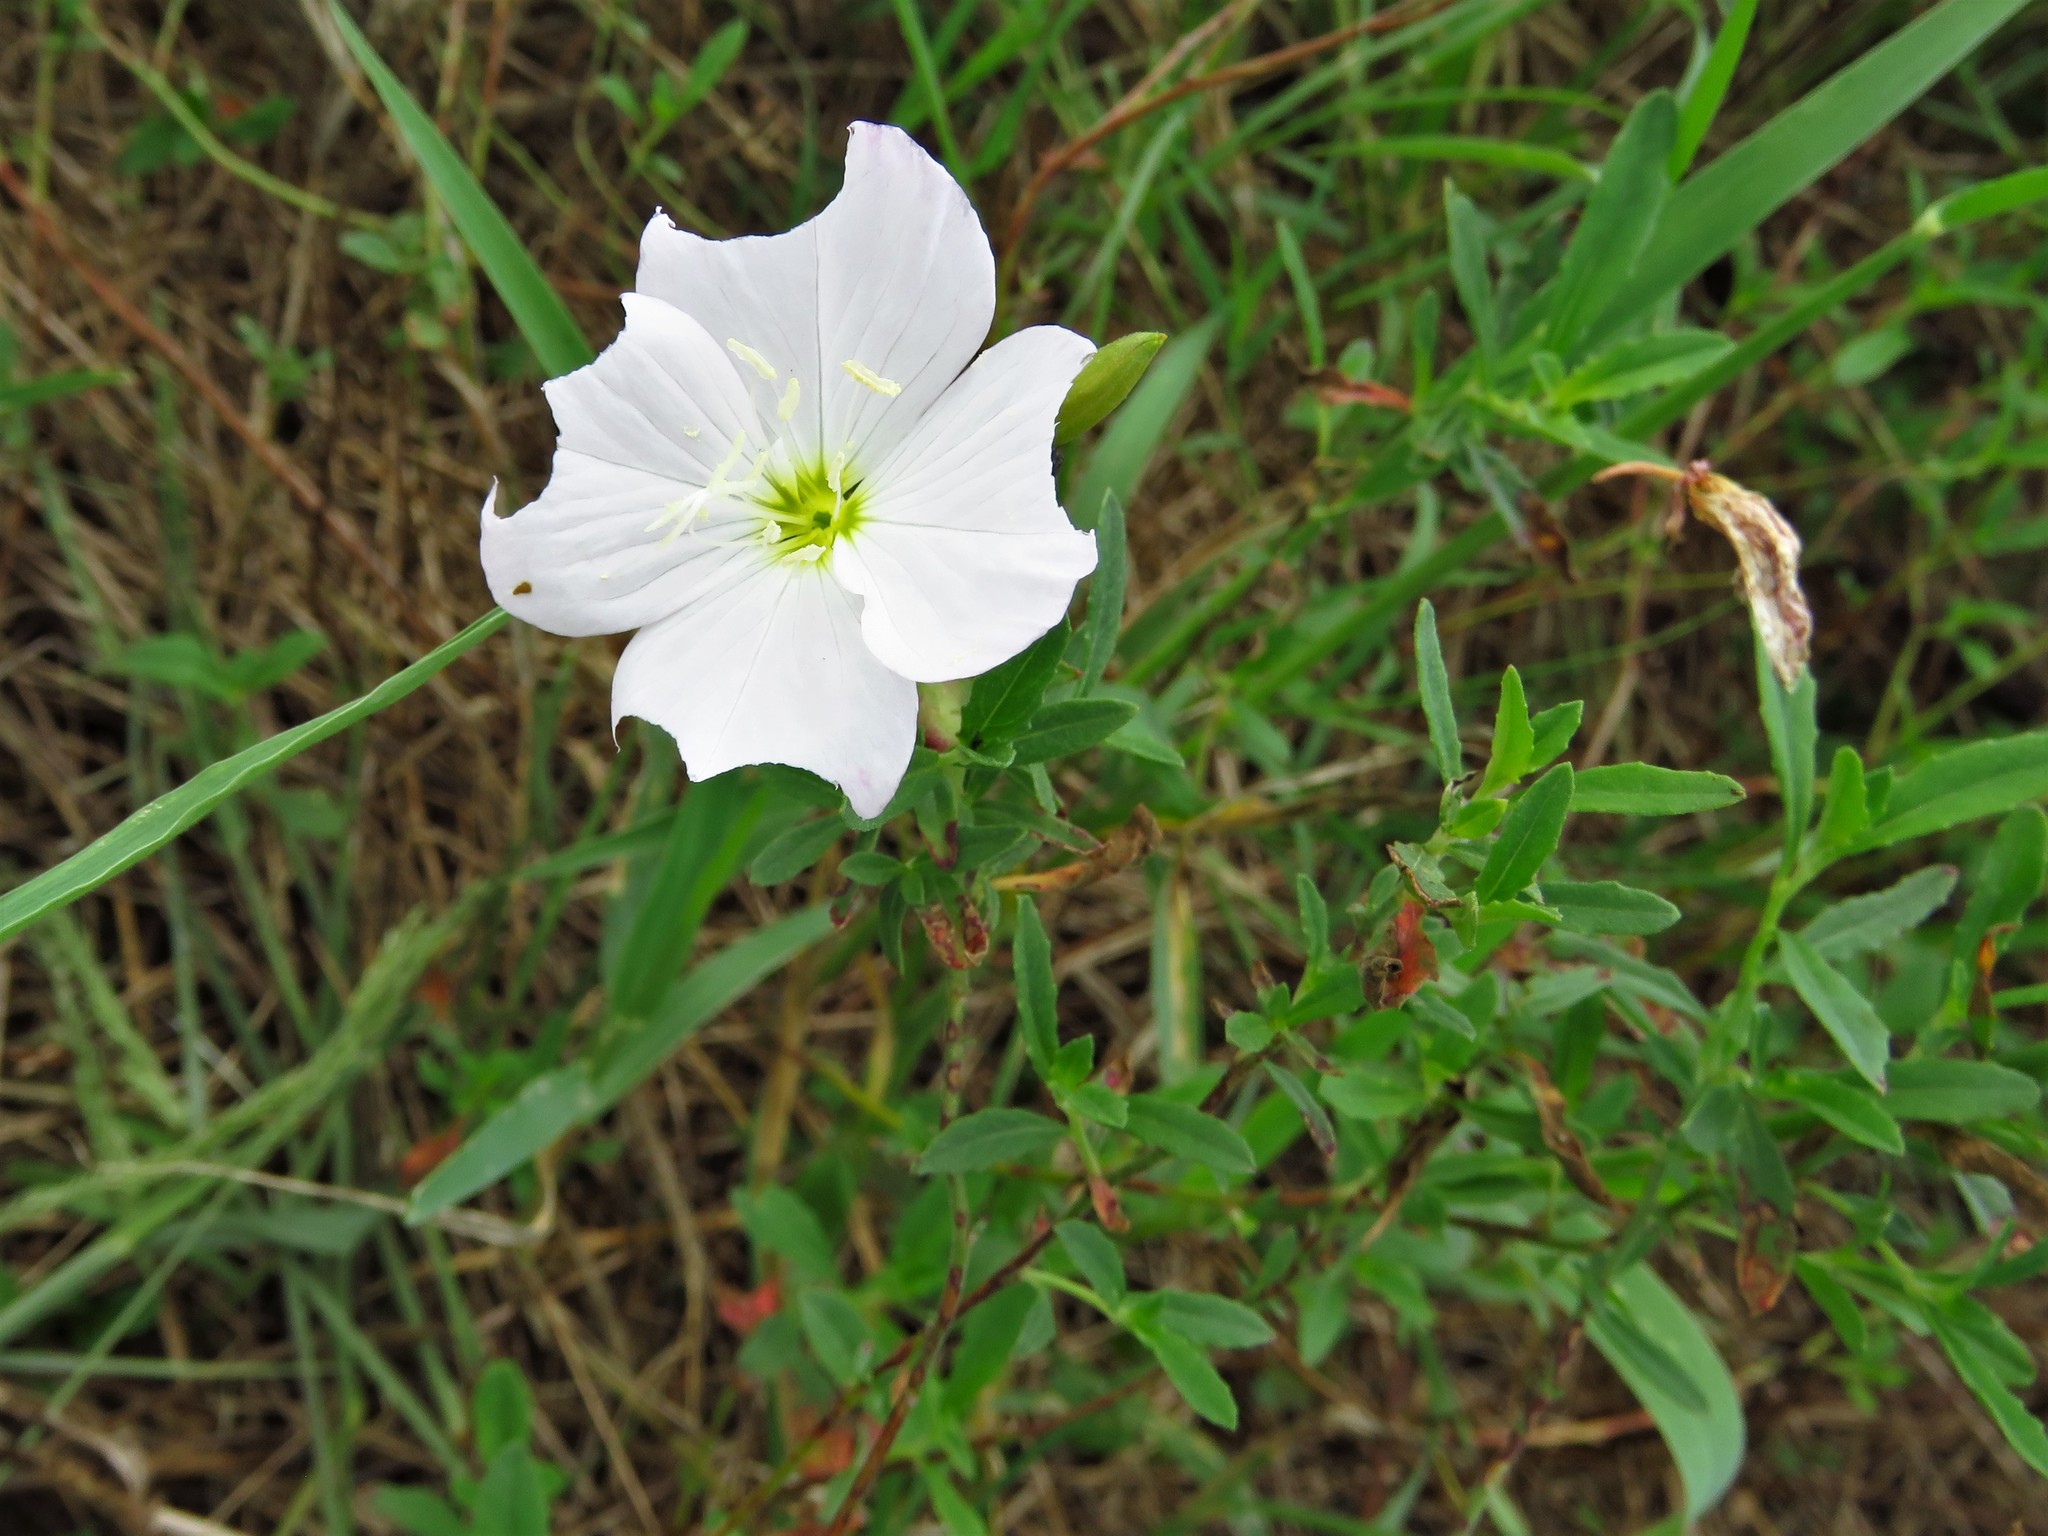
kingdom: Plantae
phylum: Tracheophyta
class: Magnoliopsida
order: Myrtales
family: Onagraceae
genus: Oenothera
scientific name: Oenothera speciosa
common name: White evening-primrose
